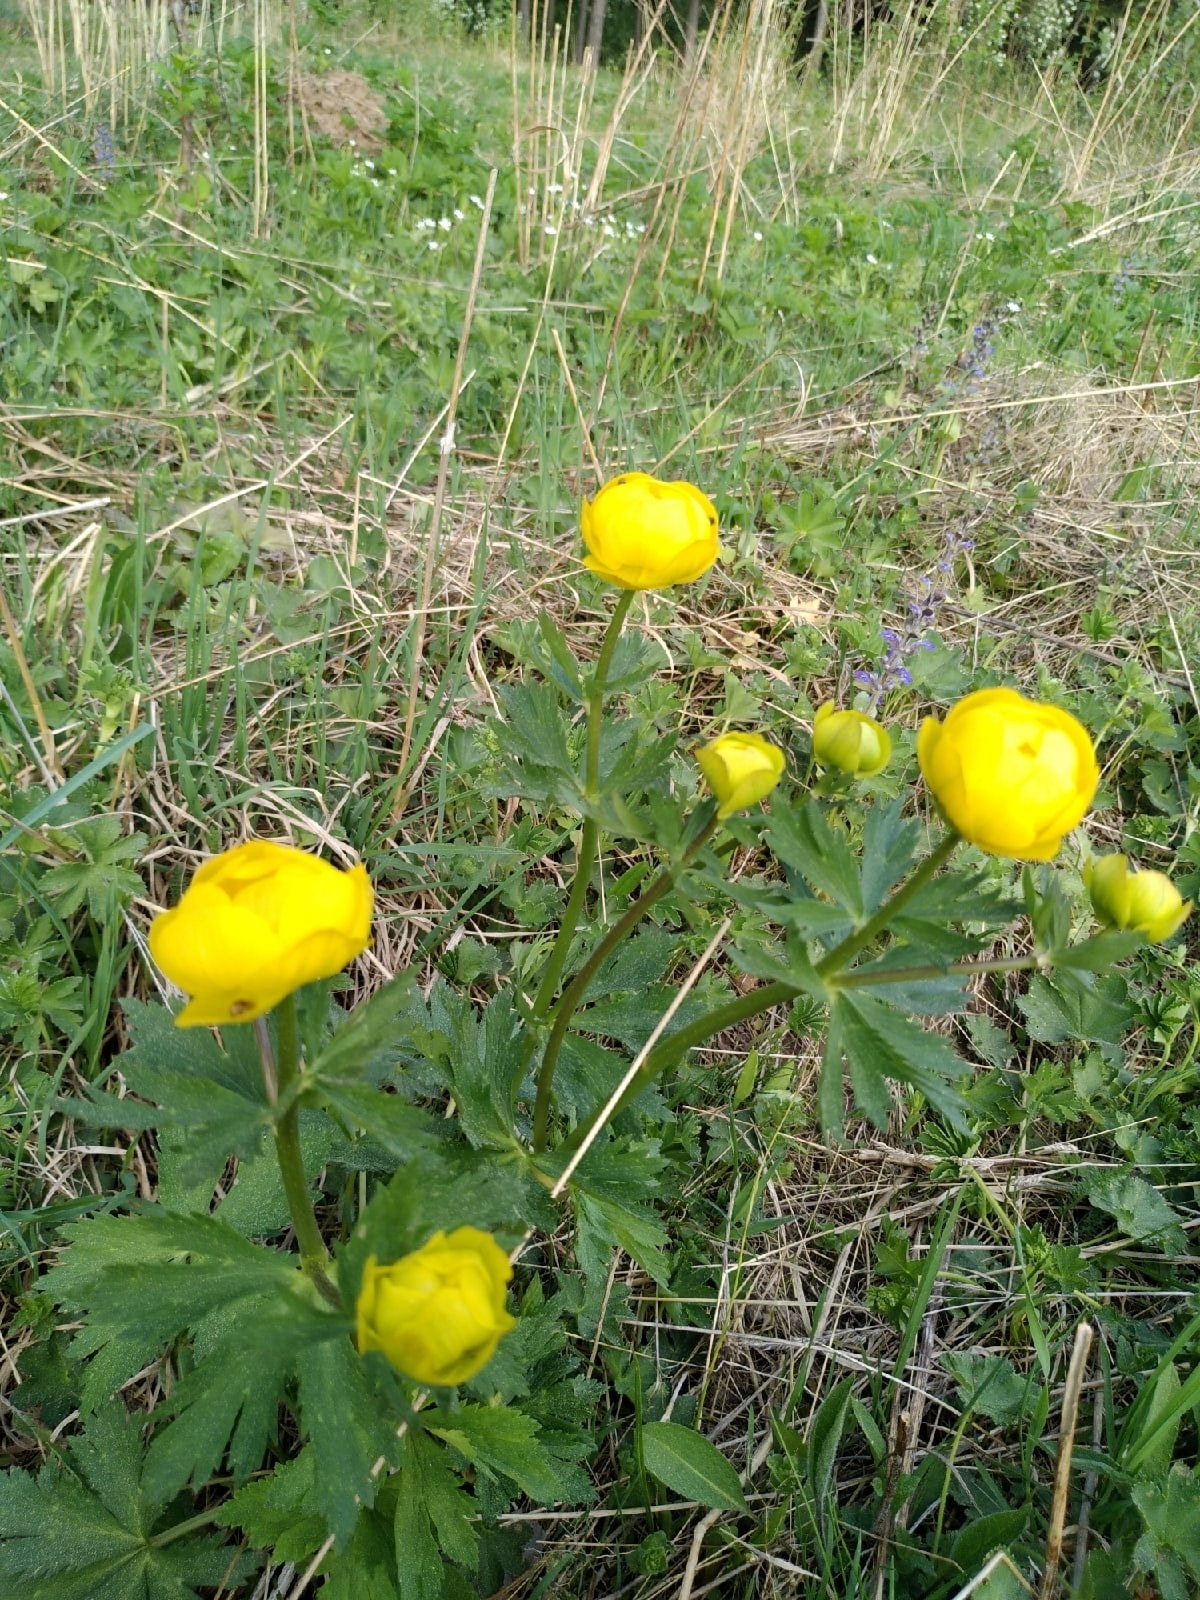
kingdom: Plantae
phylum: Tracheophyta
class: Magnoliopsida
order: Ranunculales
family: Ranunculaceae
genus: Trollius
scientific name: Trollius europaeus
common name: European globeflower
